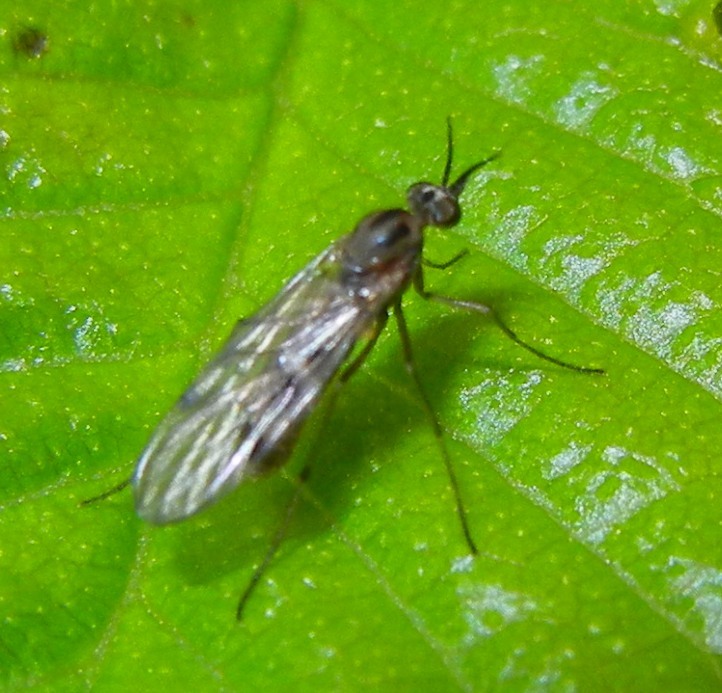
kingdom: Animalia
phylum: Arthropoda
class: Insecta
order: Diptera
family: Anisopodidae
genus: Sylvicola
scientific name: Sylvicola punctatus
